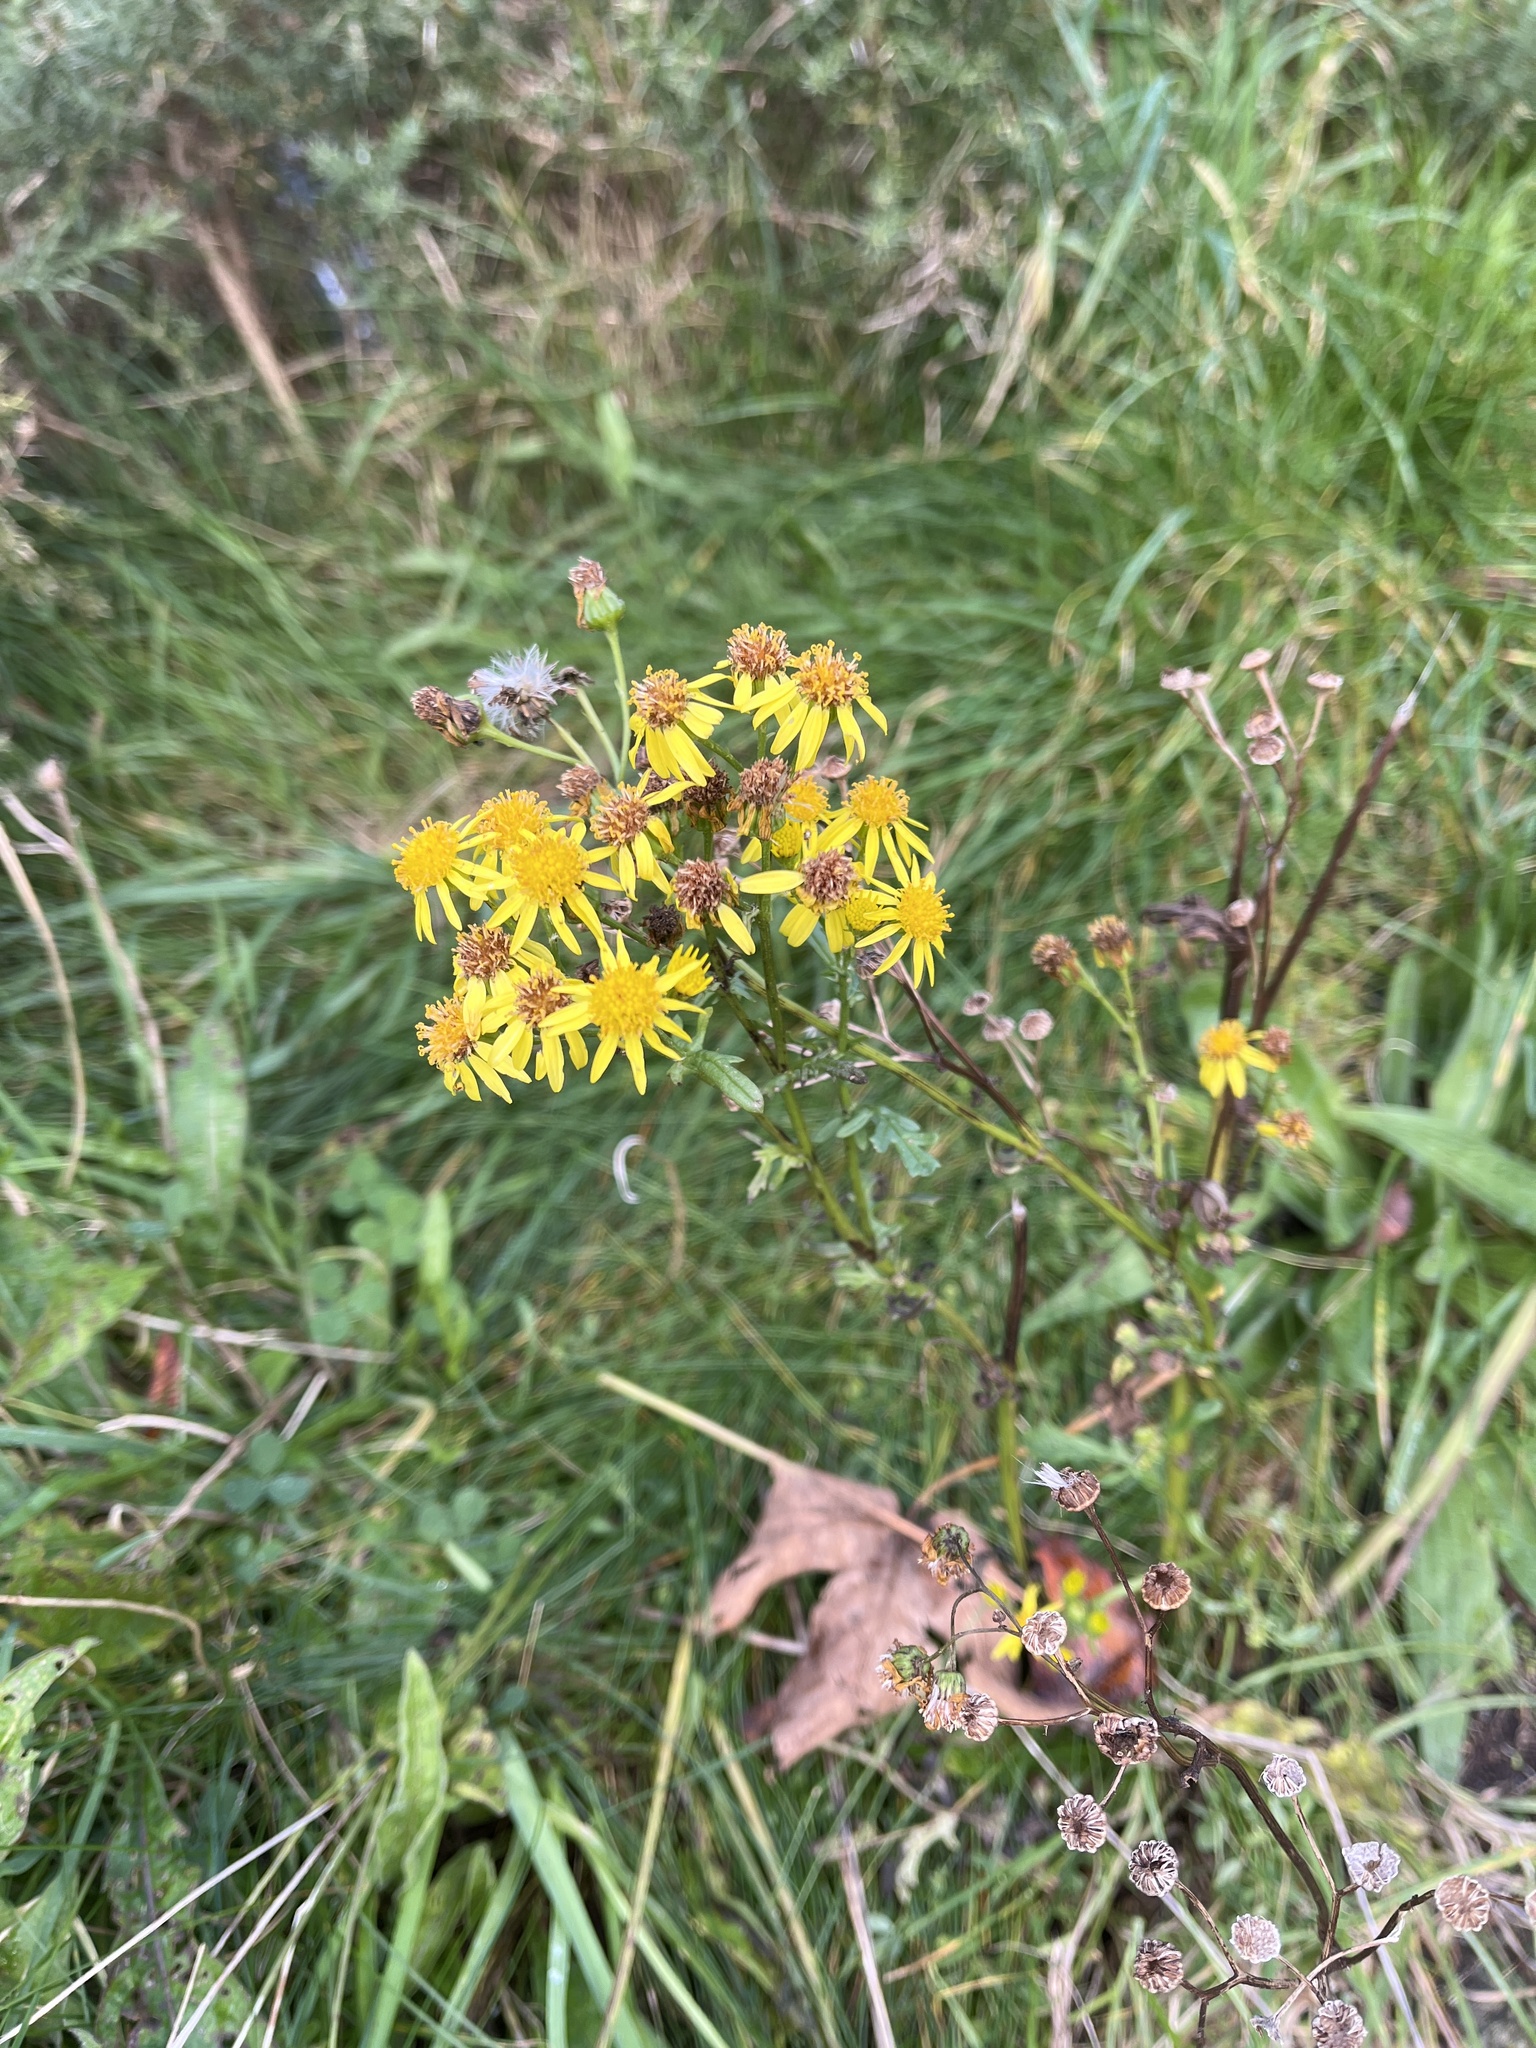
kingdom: Plantae
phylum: Tracheophyta
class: Magnoliopsida
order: Asterales
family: Asteraceae
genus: Jacobaea
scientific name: Jacobaea vulgaris
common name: Stinking willie
